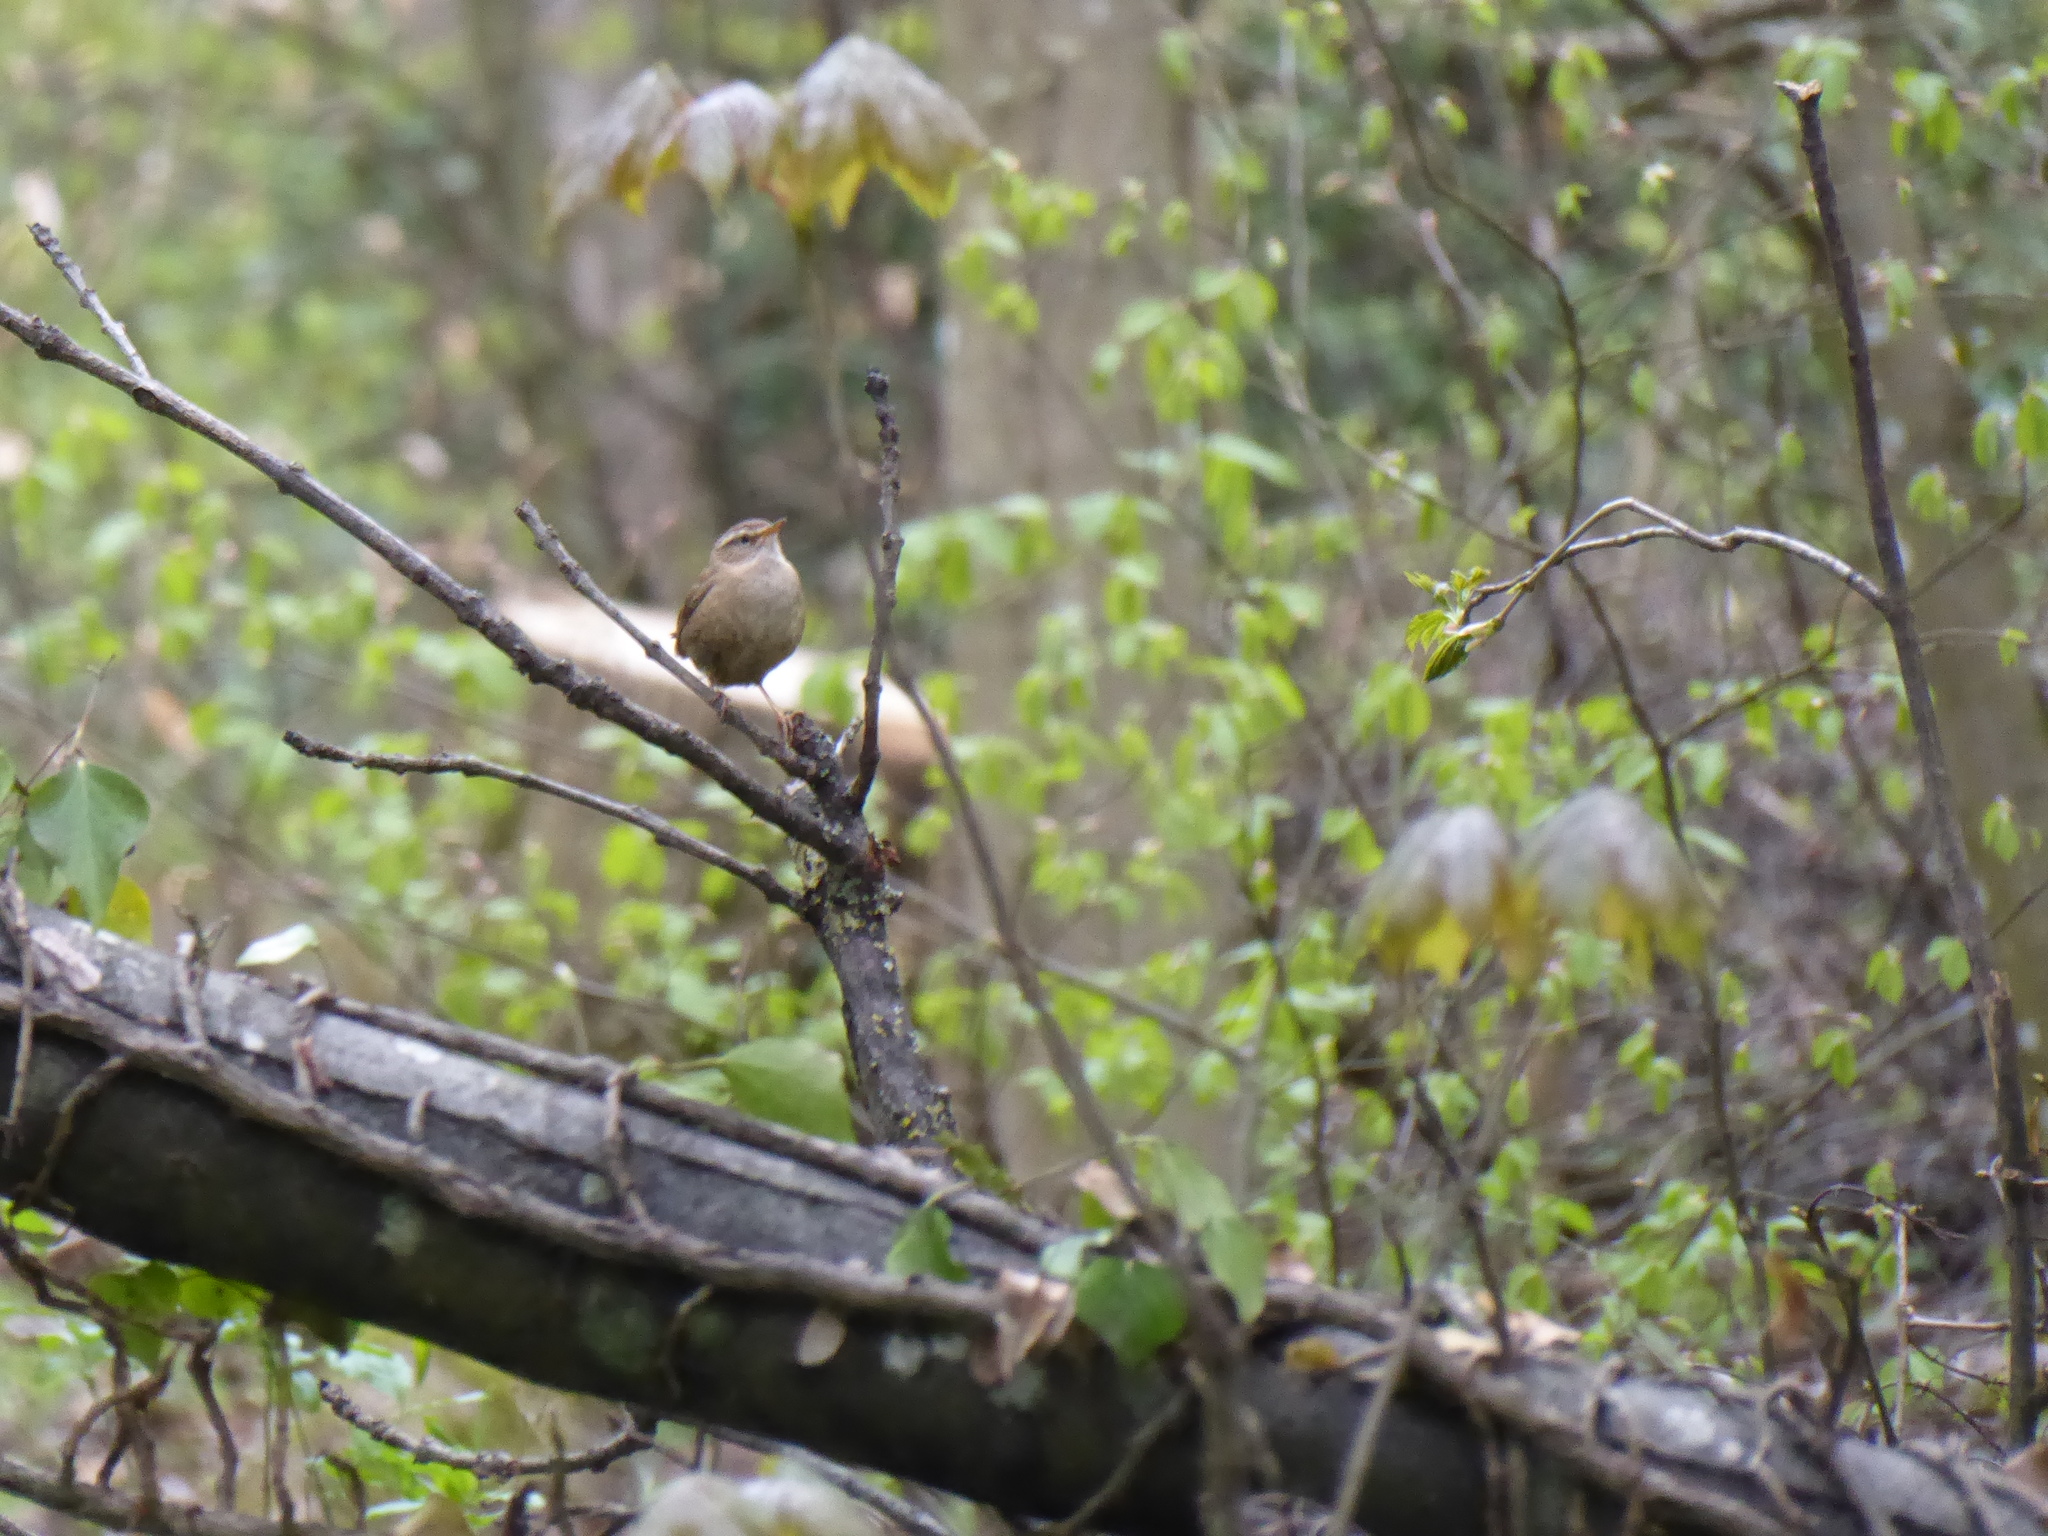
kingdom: Animalia
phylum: Chordata
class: Aves
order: Passeriformes
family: Troglodytidae
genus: Troglodytes
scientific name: Troglodytes troglodytes
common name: Eurasian wren
